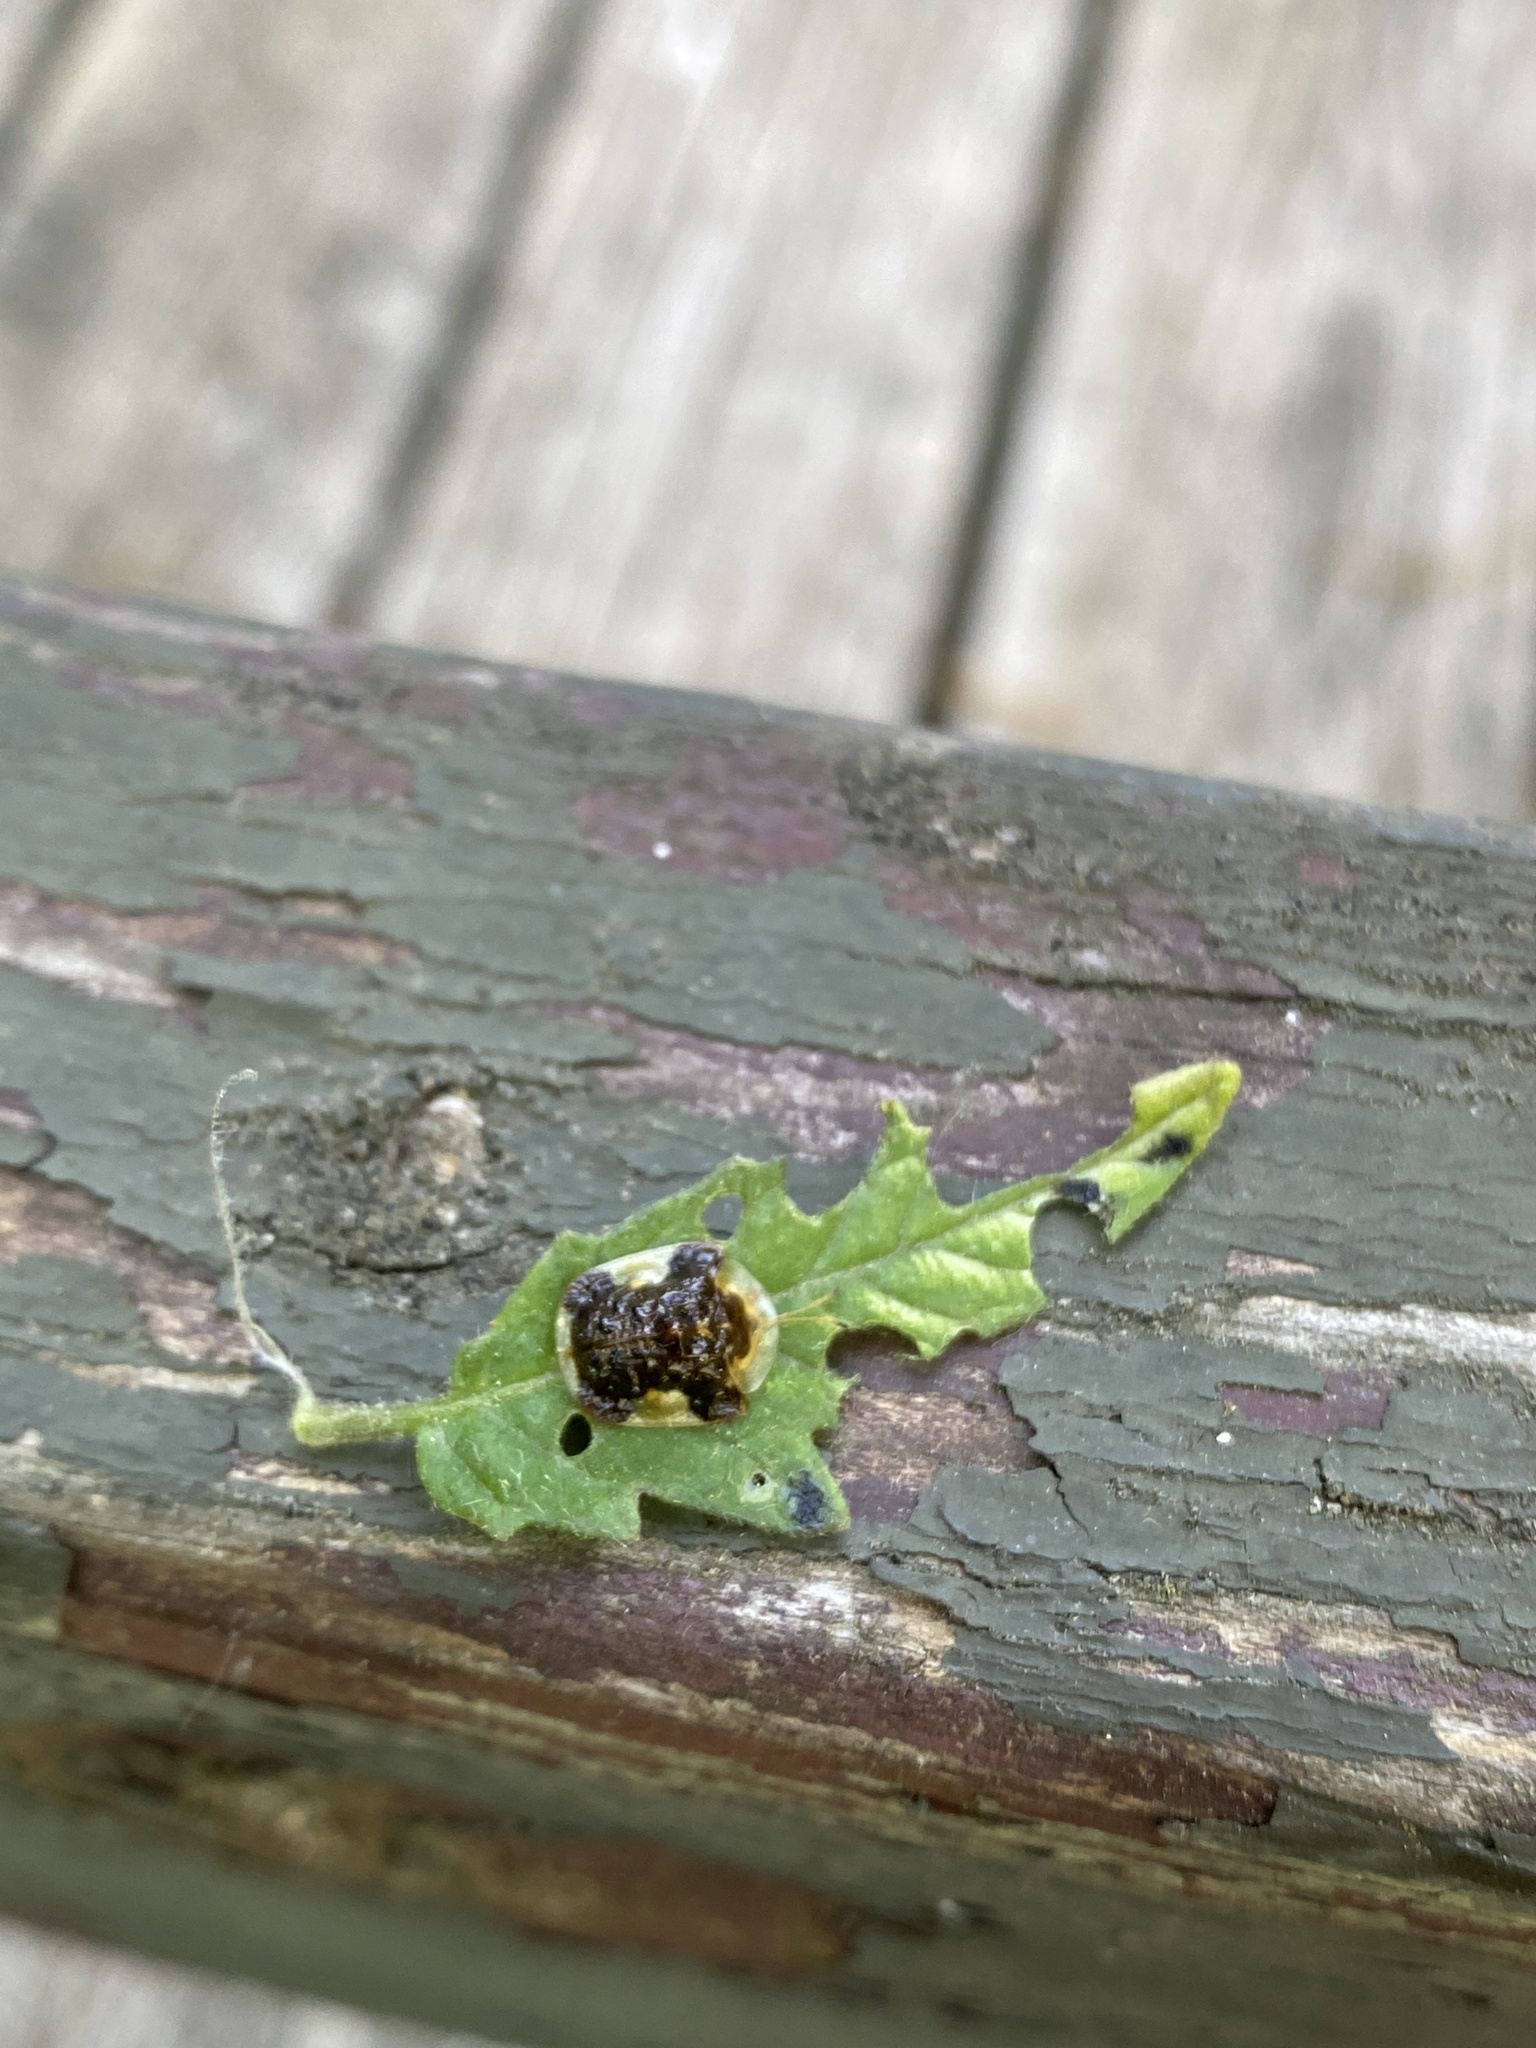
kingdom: Animalia
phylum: Arthropoda
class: Insecta
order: Coleoptera
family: Chrysomelidae
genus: Helocassis
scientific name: Helocassis clavata
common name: Clavate tortoise beetle
